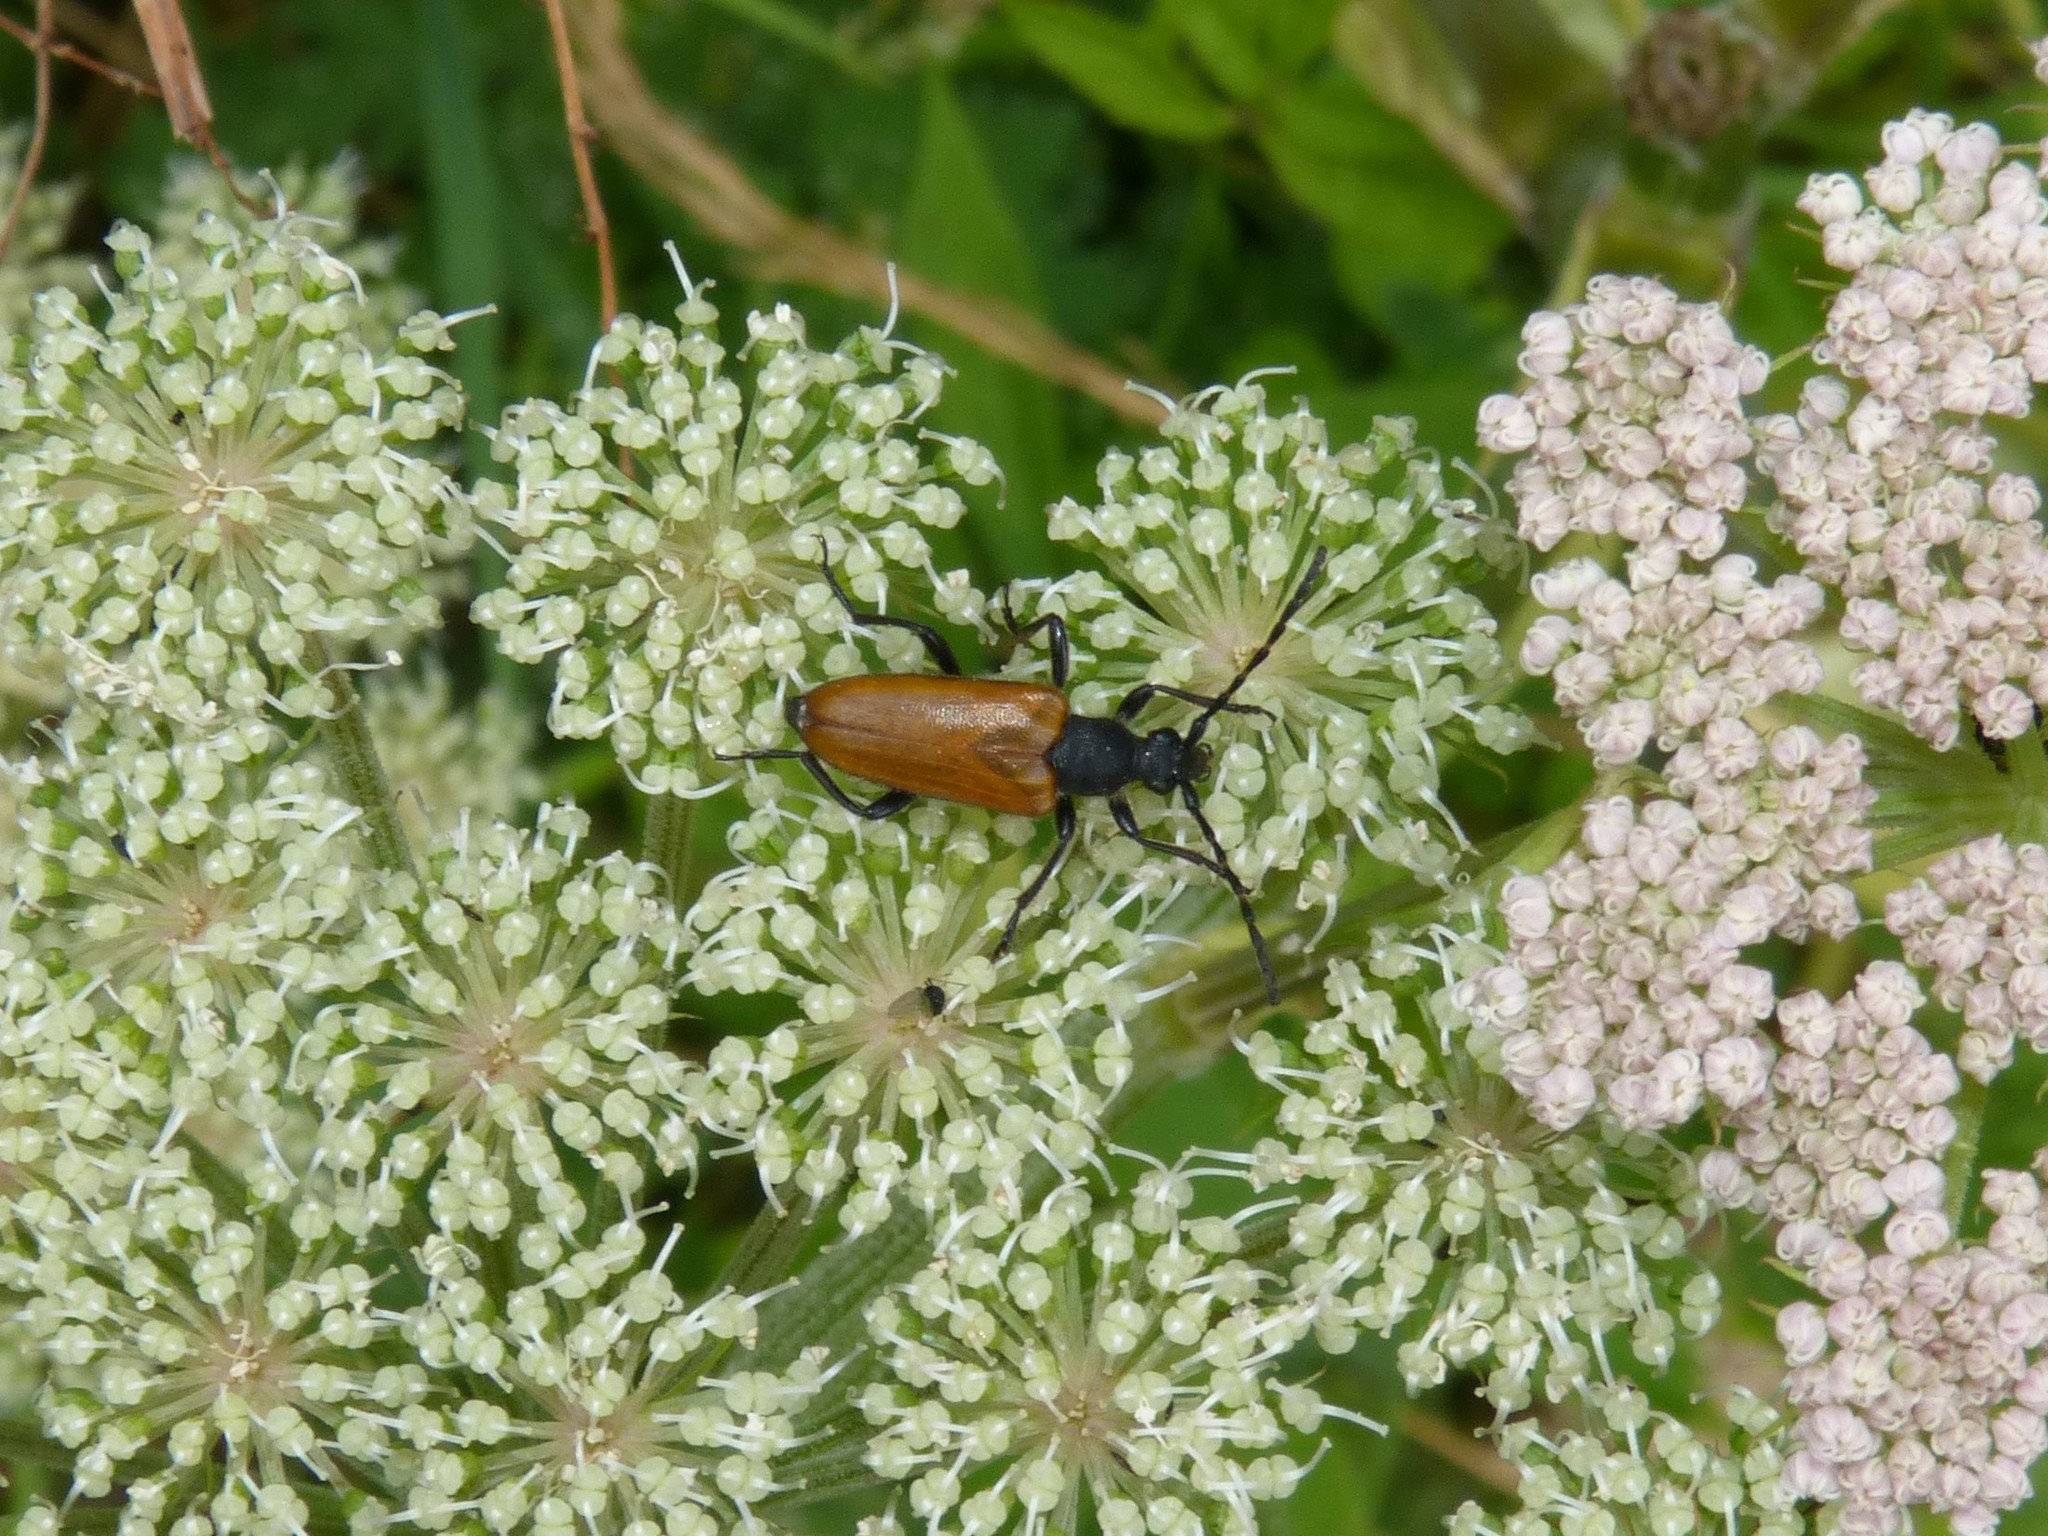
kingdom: Animalia
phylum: Arthropoda
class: Insecta
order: Coleoptera
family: Cerambycidae
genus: Paracorymbia
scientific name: Paracorymbia hybrida
